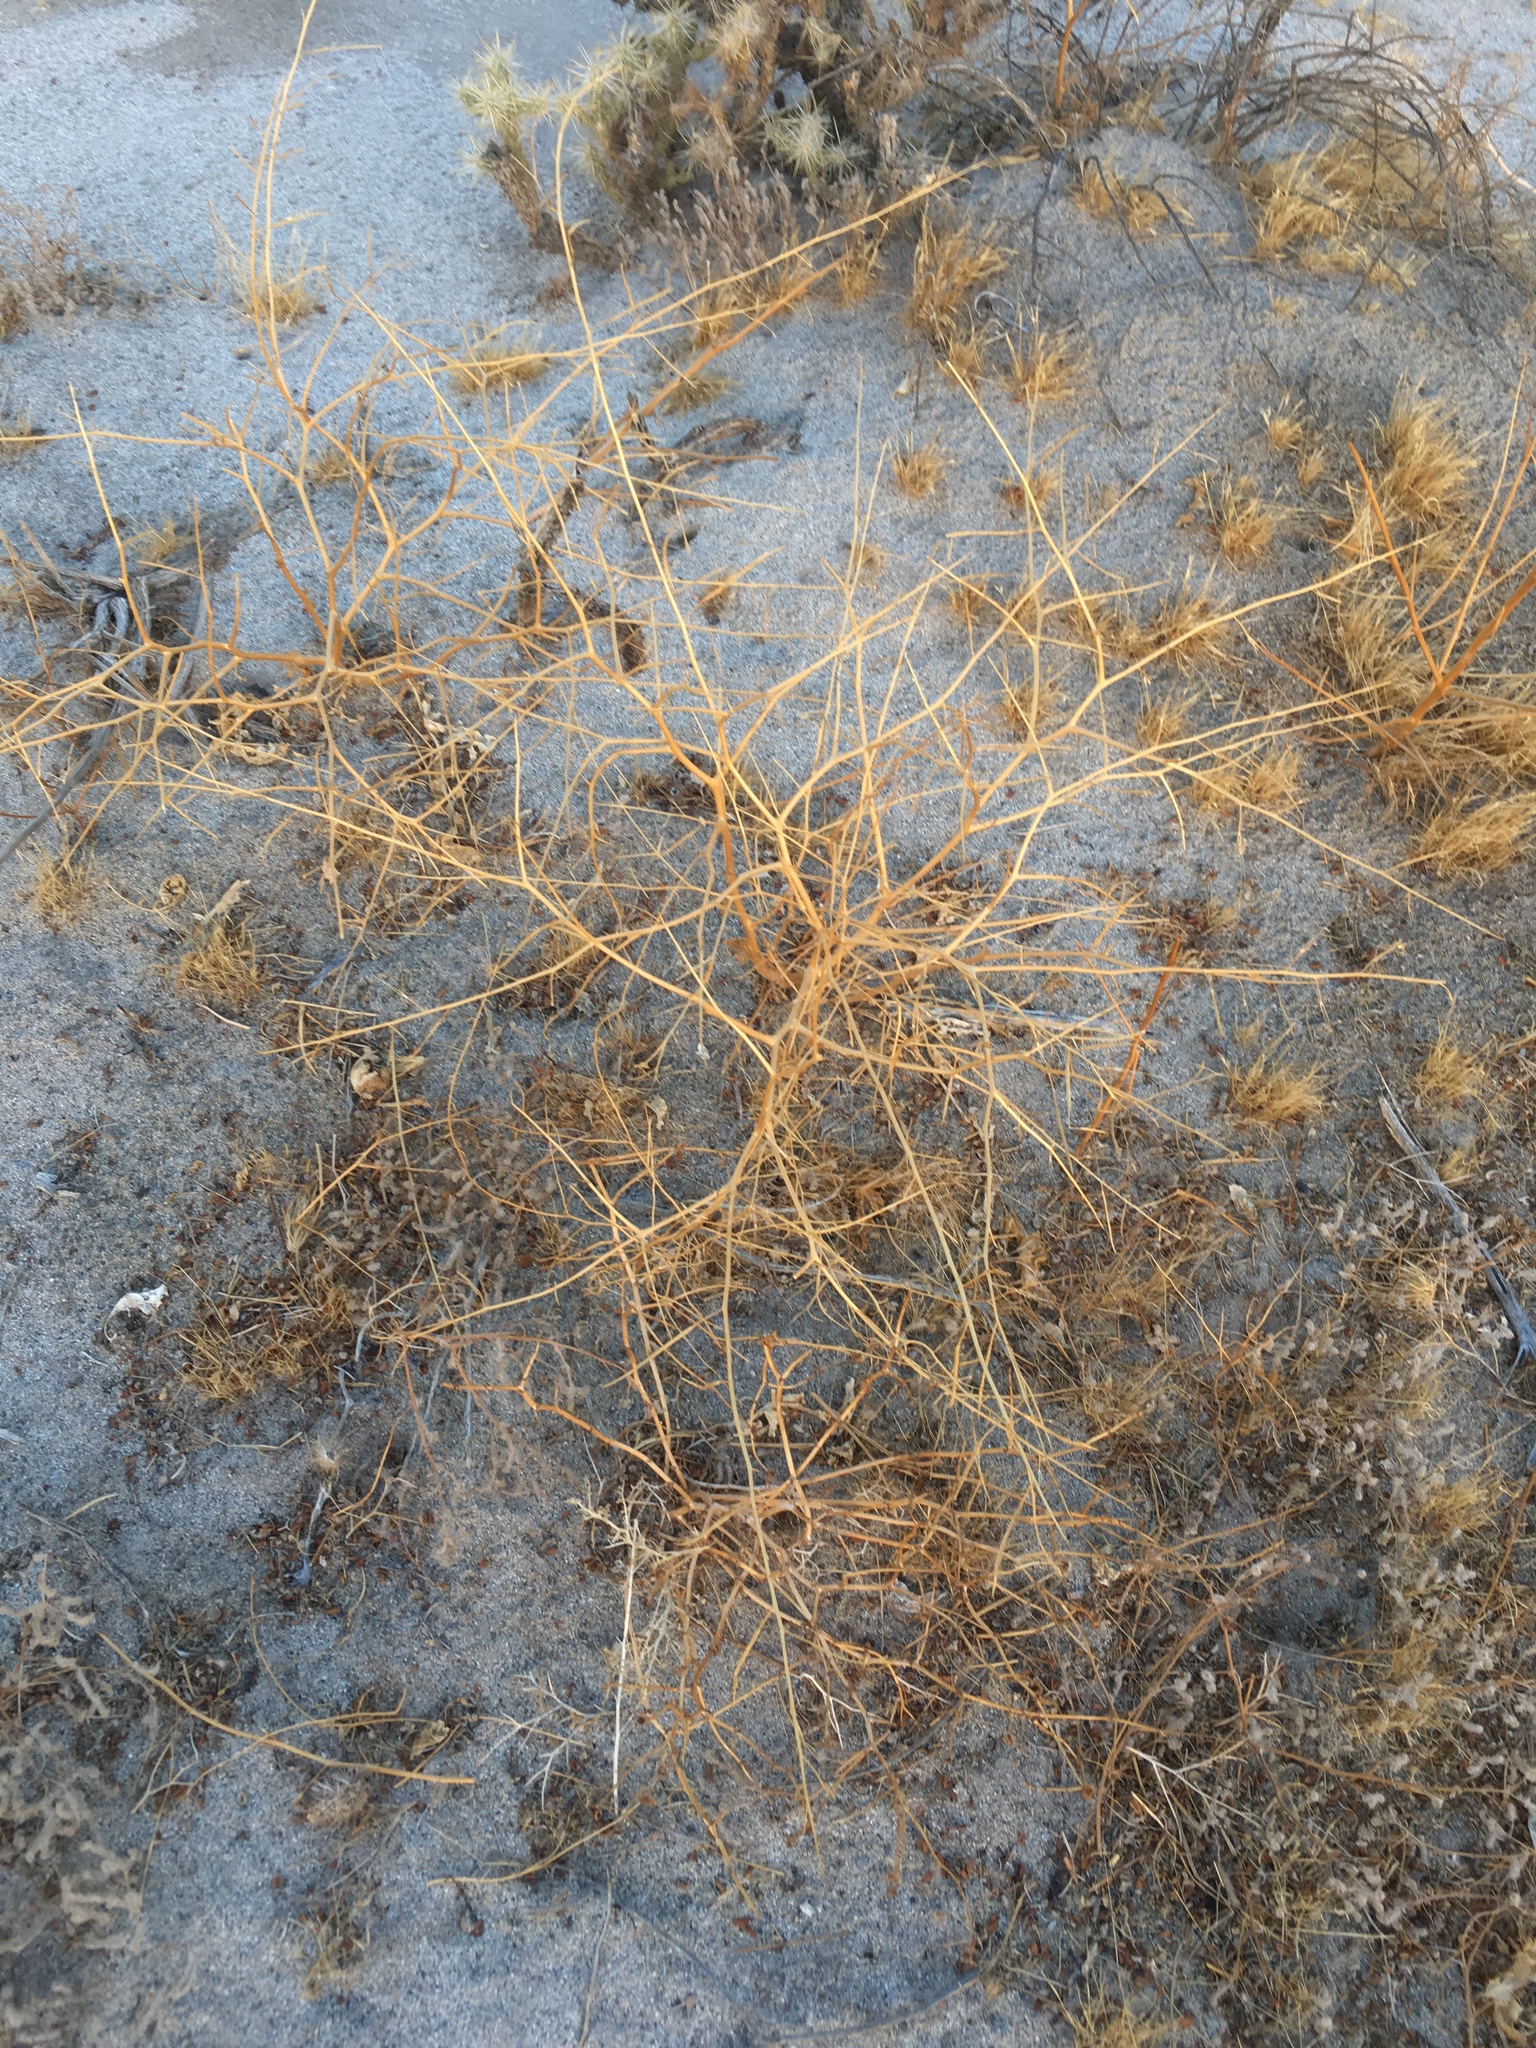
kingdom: Plantae
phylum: Tracheophyta
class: Magnoliopsida
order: Brassicales
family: Brassicaceae
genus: Brassica
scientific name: Brassica tournefortii
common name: Pale cabbage
